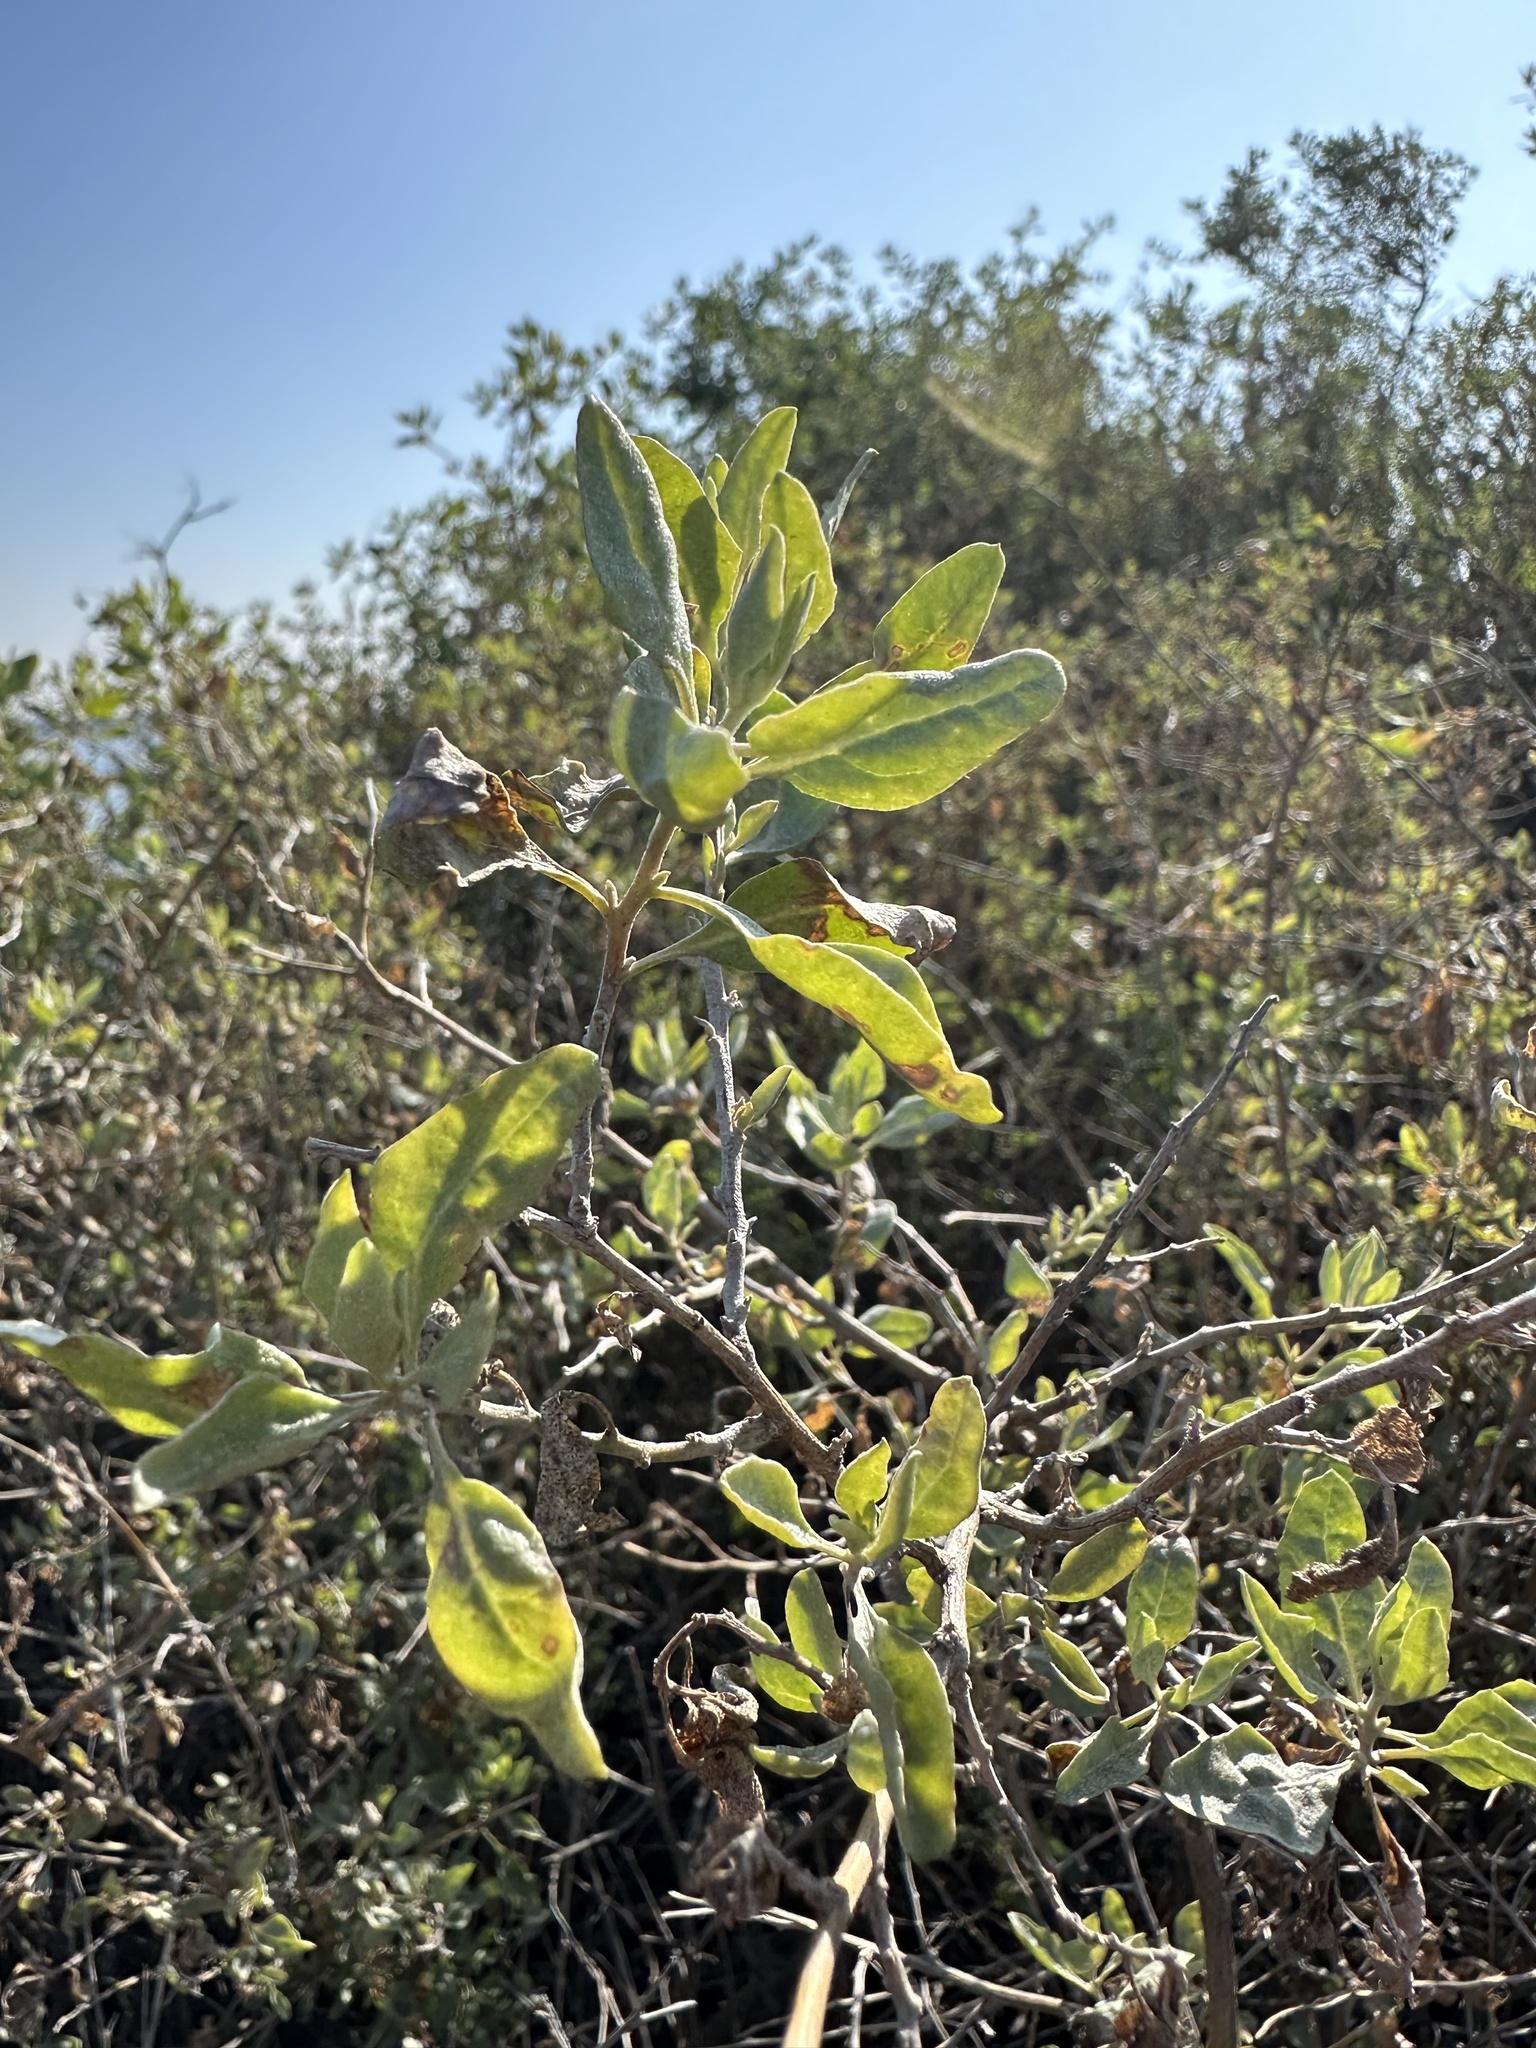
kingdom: Plantae
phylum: Tracheophyta
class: Magnoliopsida
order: Caryophyllales
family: Amaranthaceae
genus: Atriplex
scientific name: Atriplex lentiformis
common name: Big saltbush
